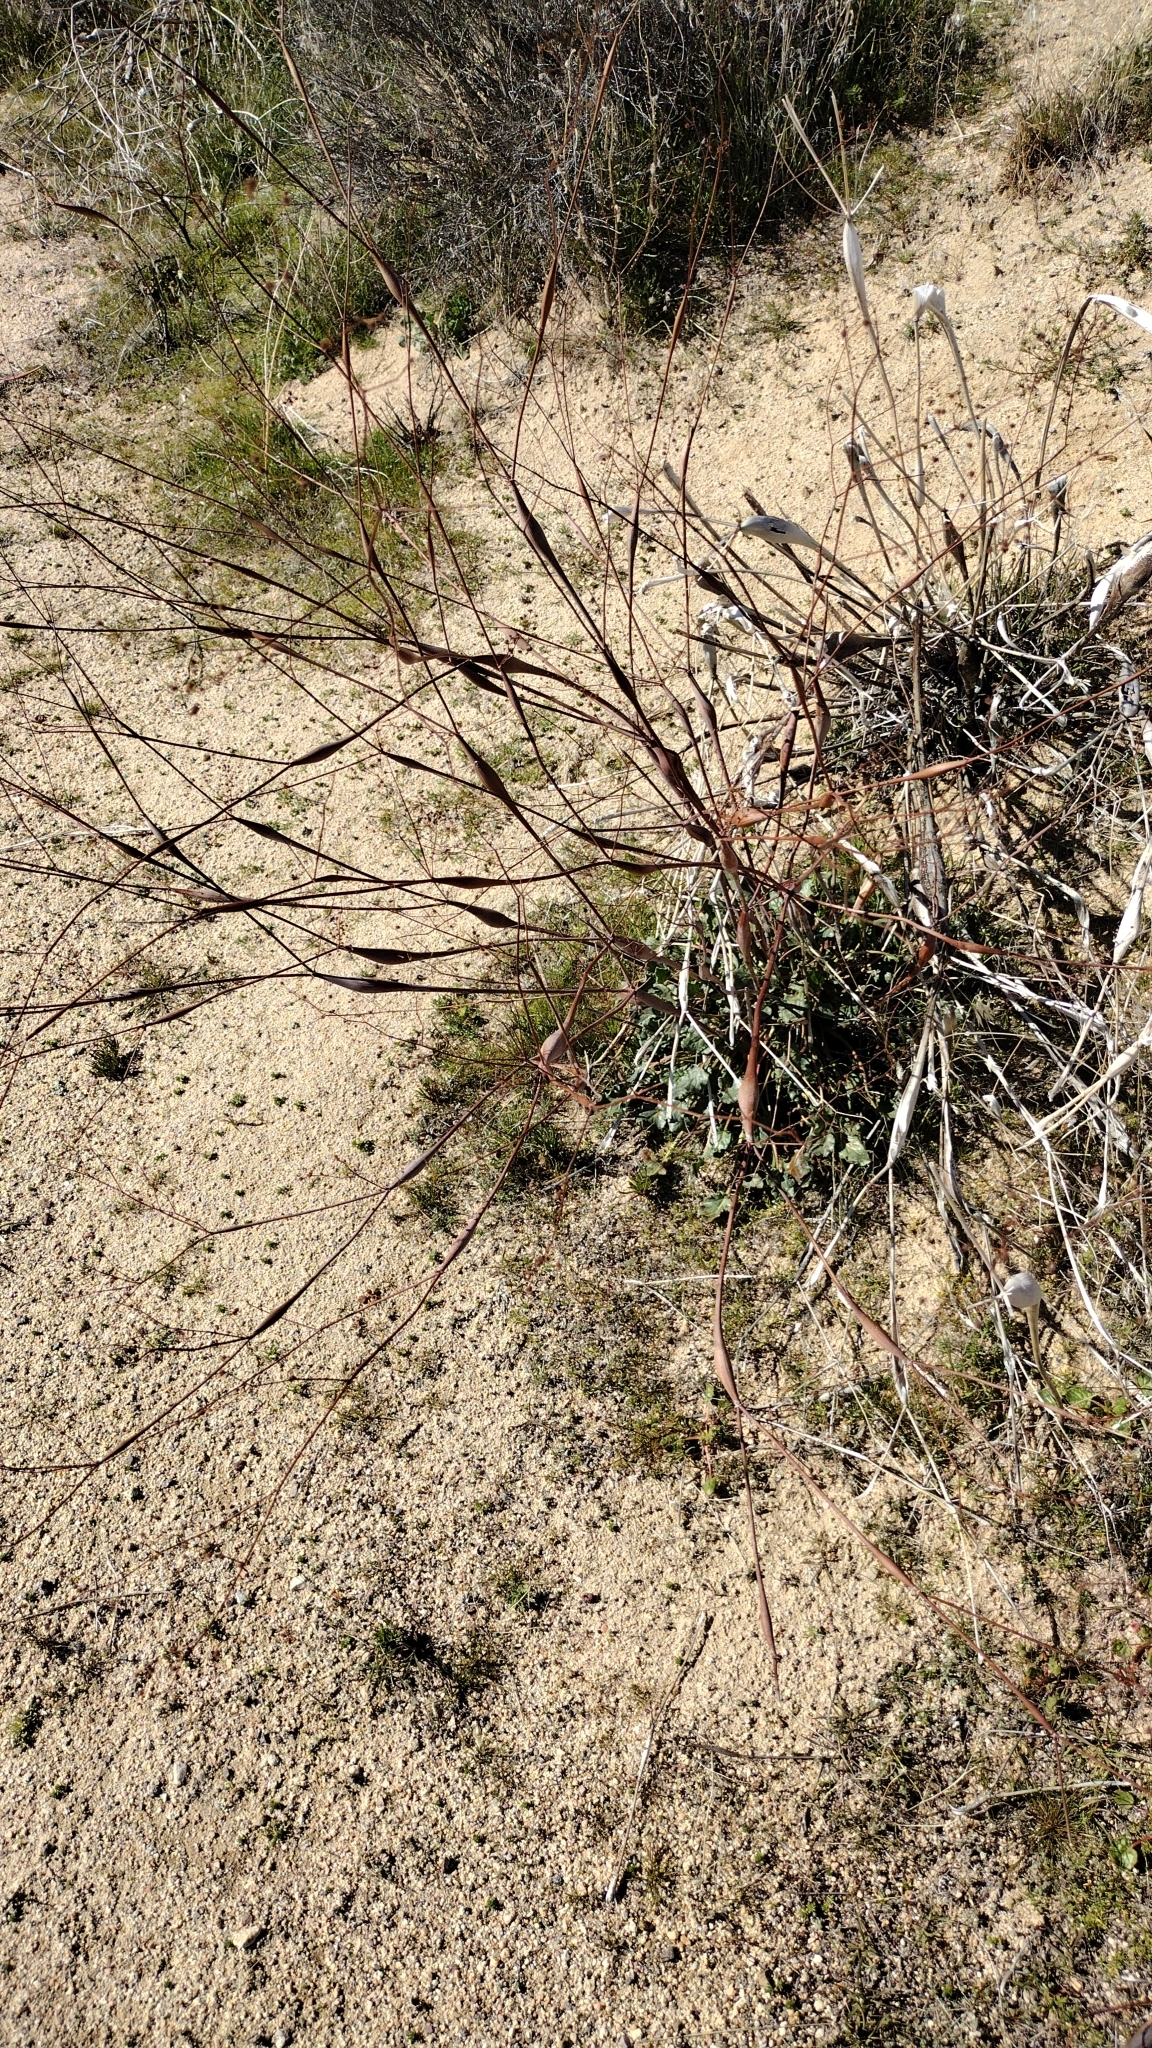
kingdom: Plantae
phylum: Tracheophyta
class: Magnoliopsida
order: Caryophyllales
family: Polygonaceae
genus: Eriogonum
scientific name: Eriogonum inflatum
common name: Desert trumpet
